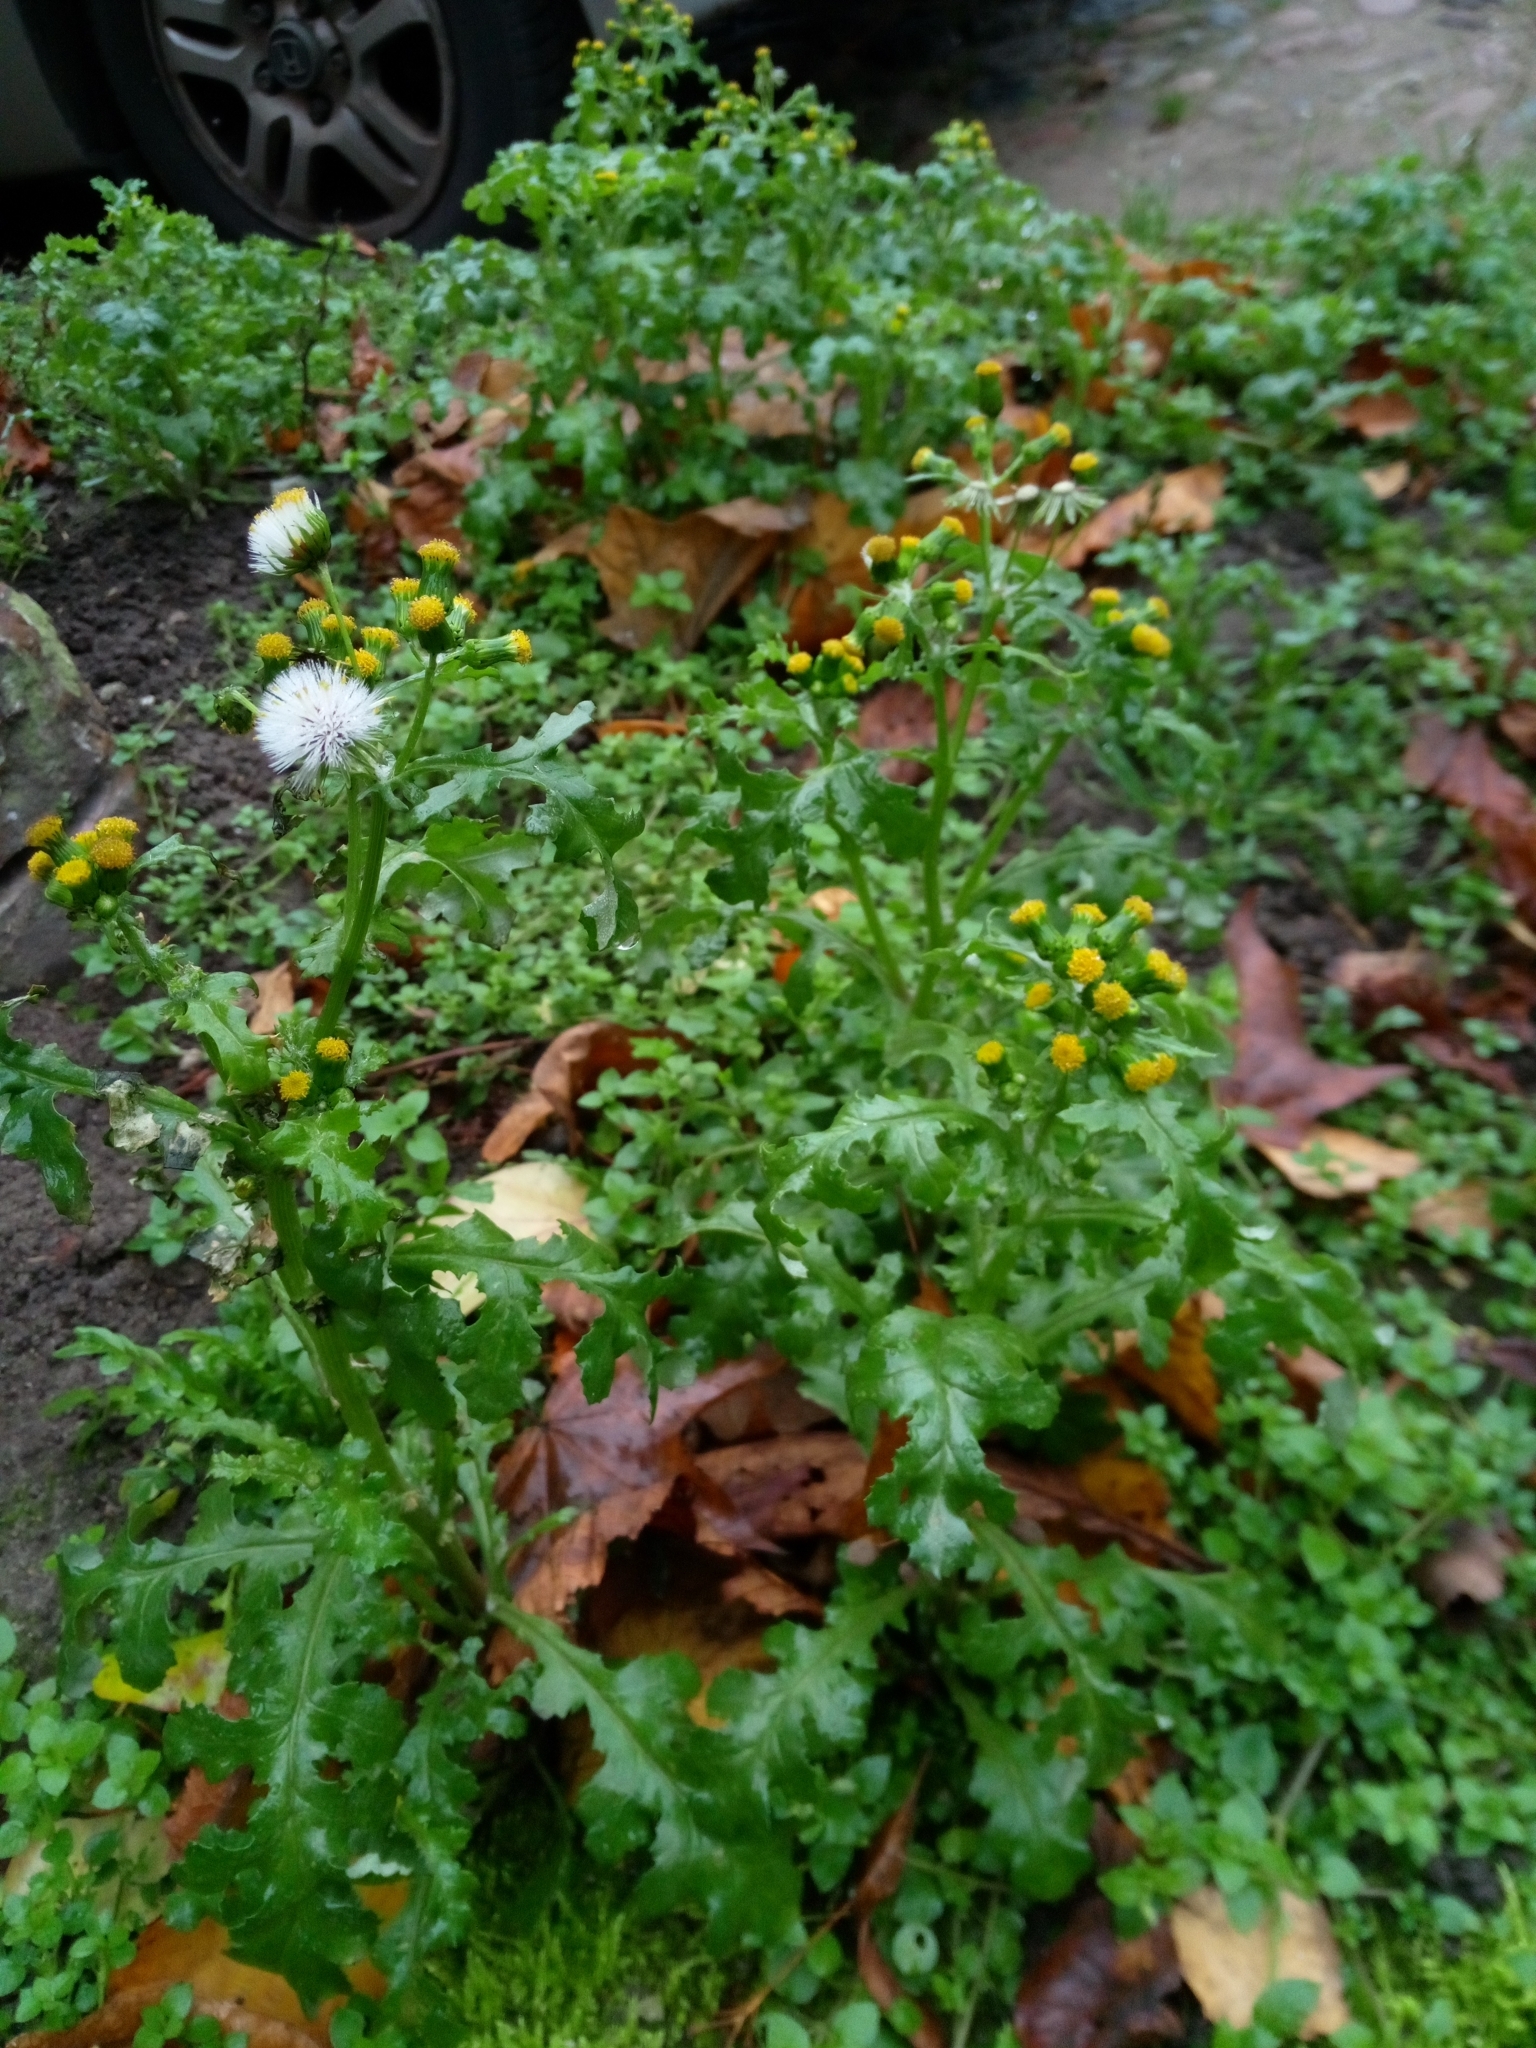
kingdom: Plantae
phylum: Tracheophyta
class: Magnoliopsida
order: Asterales
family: Asteraceae
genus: Senecio
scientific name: Senecio vulgaris
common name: Old-man-in-the-spring
